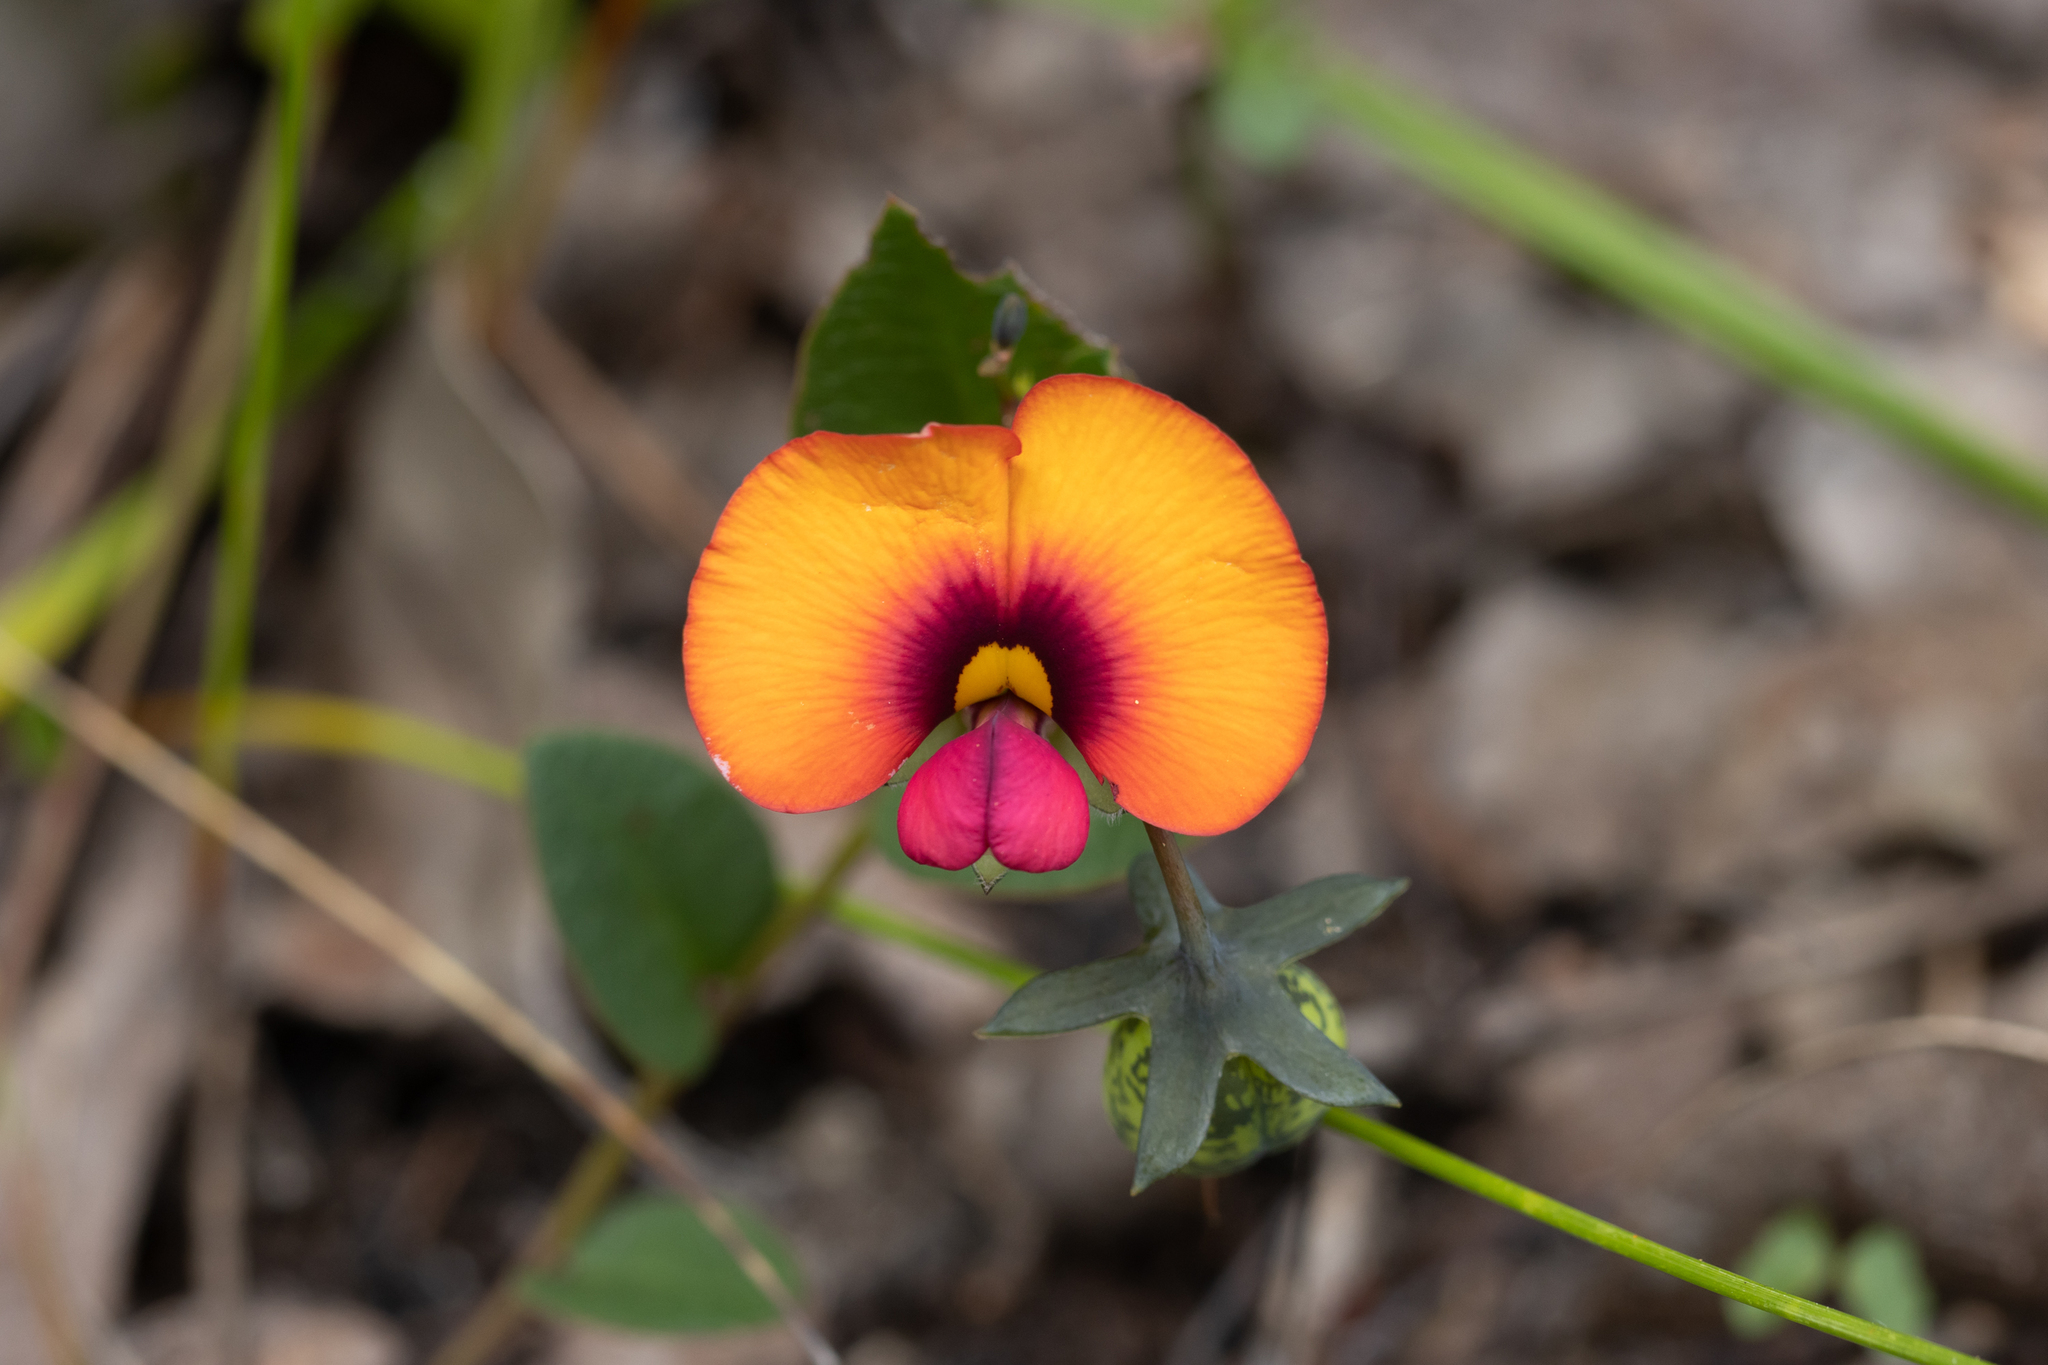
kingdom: Plantae
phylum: Tracheophyta
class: Magnoliopsida
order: Fabales
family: Fabaceae
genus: Gompholobium
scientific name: Gompholobium ovatum
